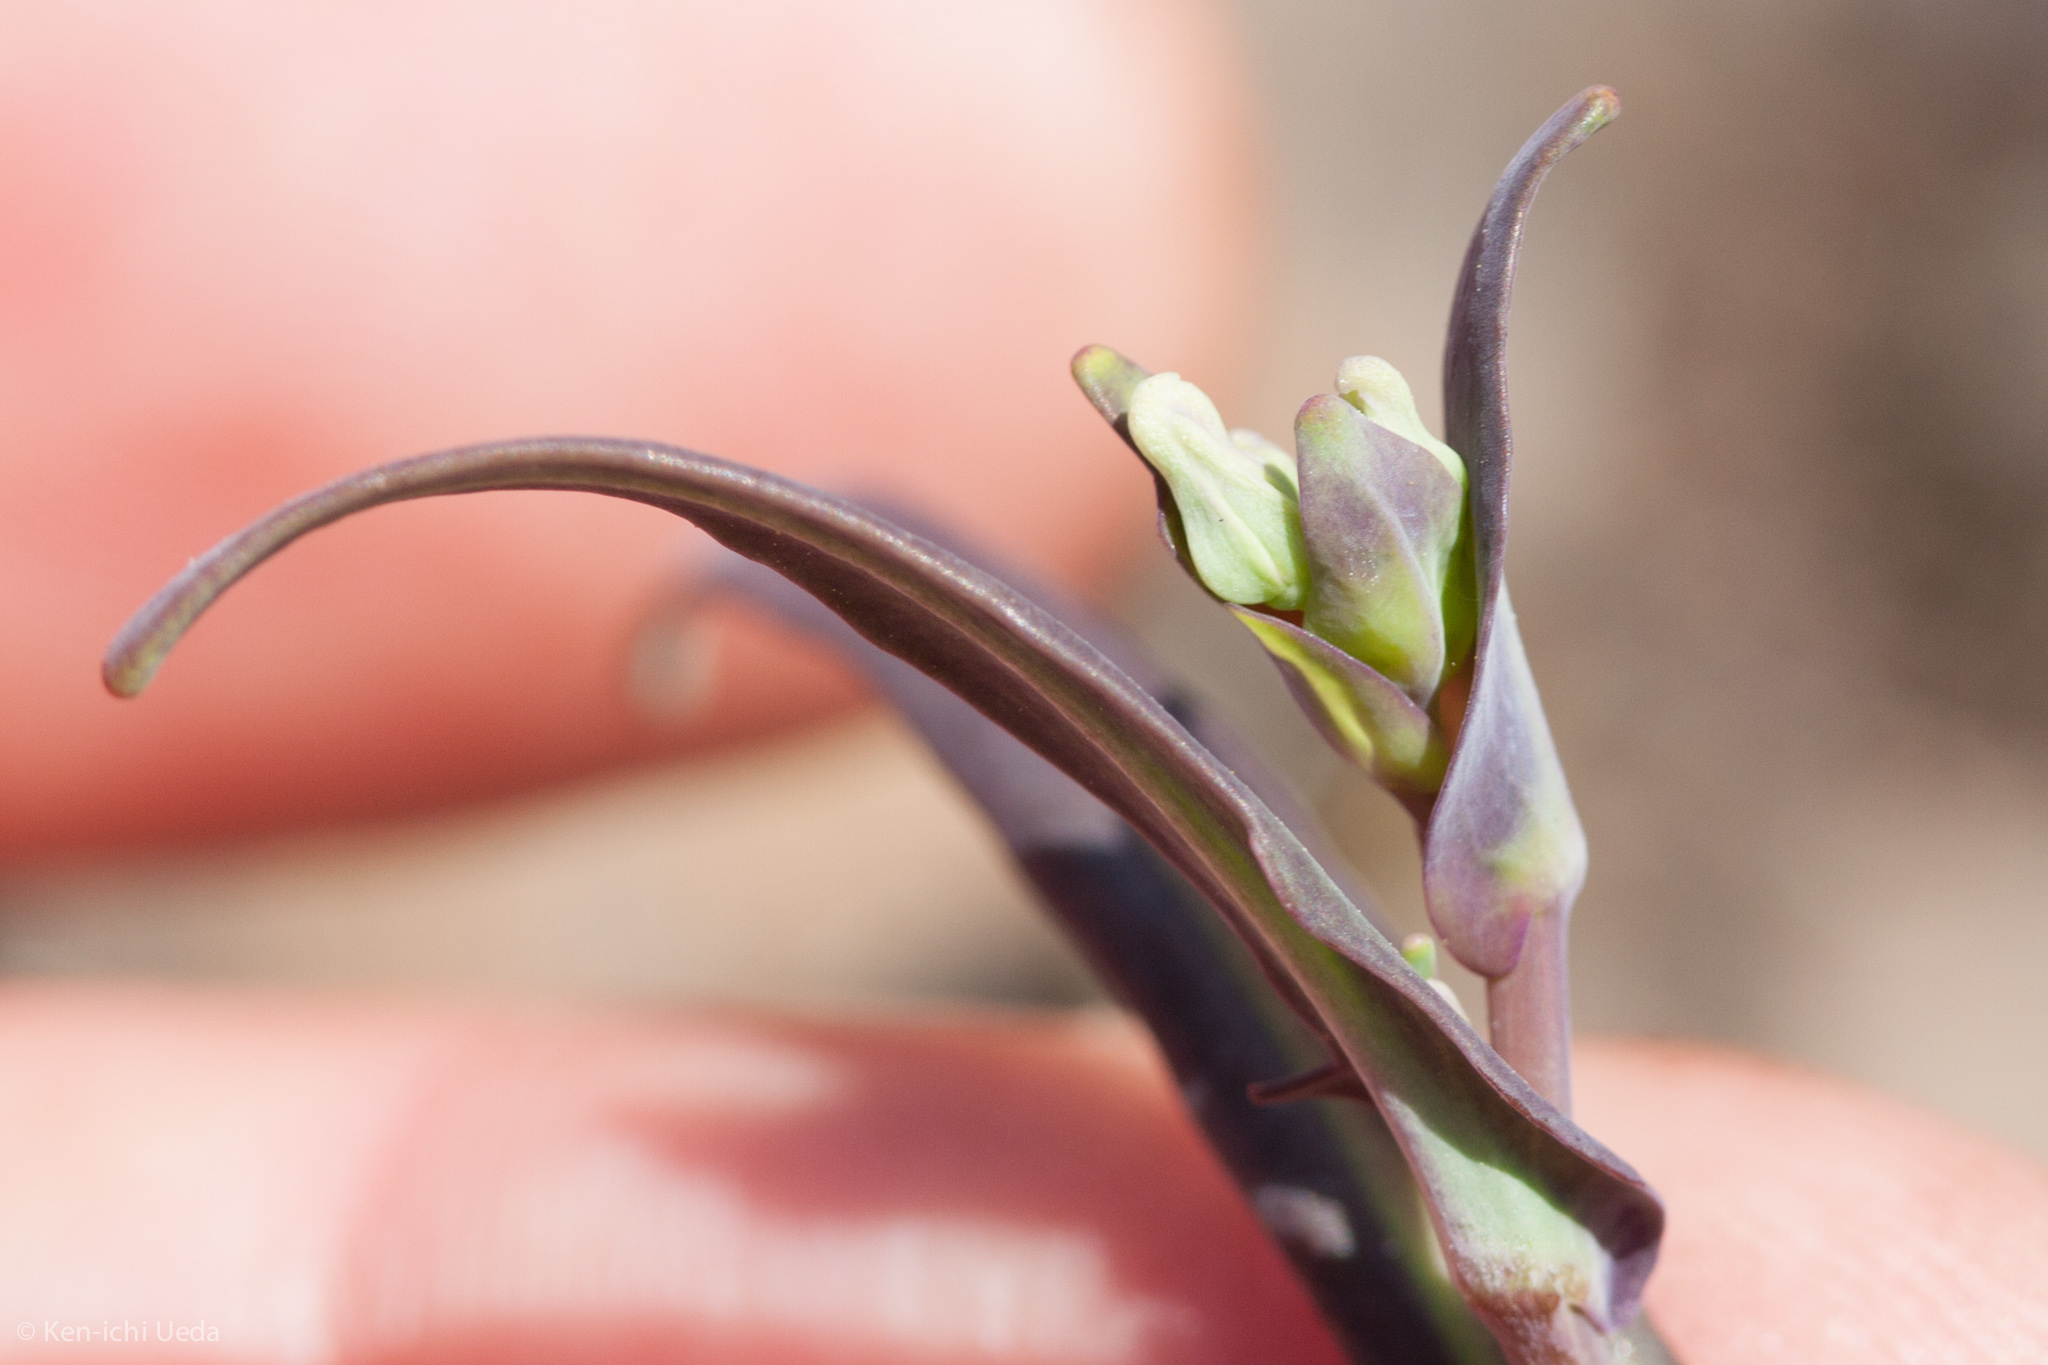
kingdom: Plantae
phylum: Tracheophyta
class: Magnoliopsida
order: Brassicales
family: Brassicaceae
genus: Streptanthus
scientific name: Streptanthus diversifolius
